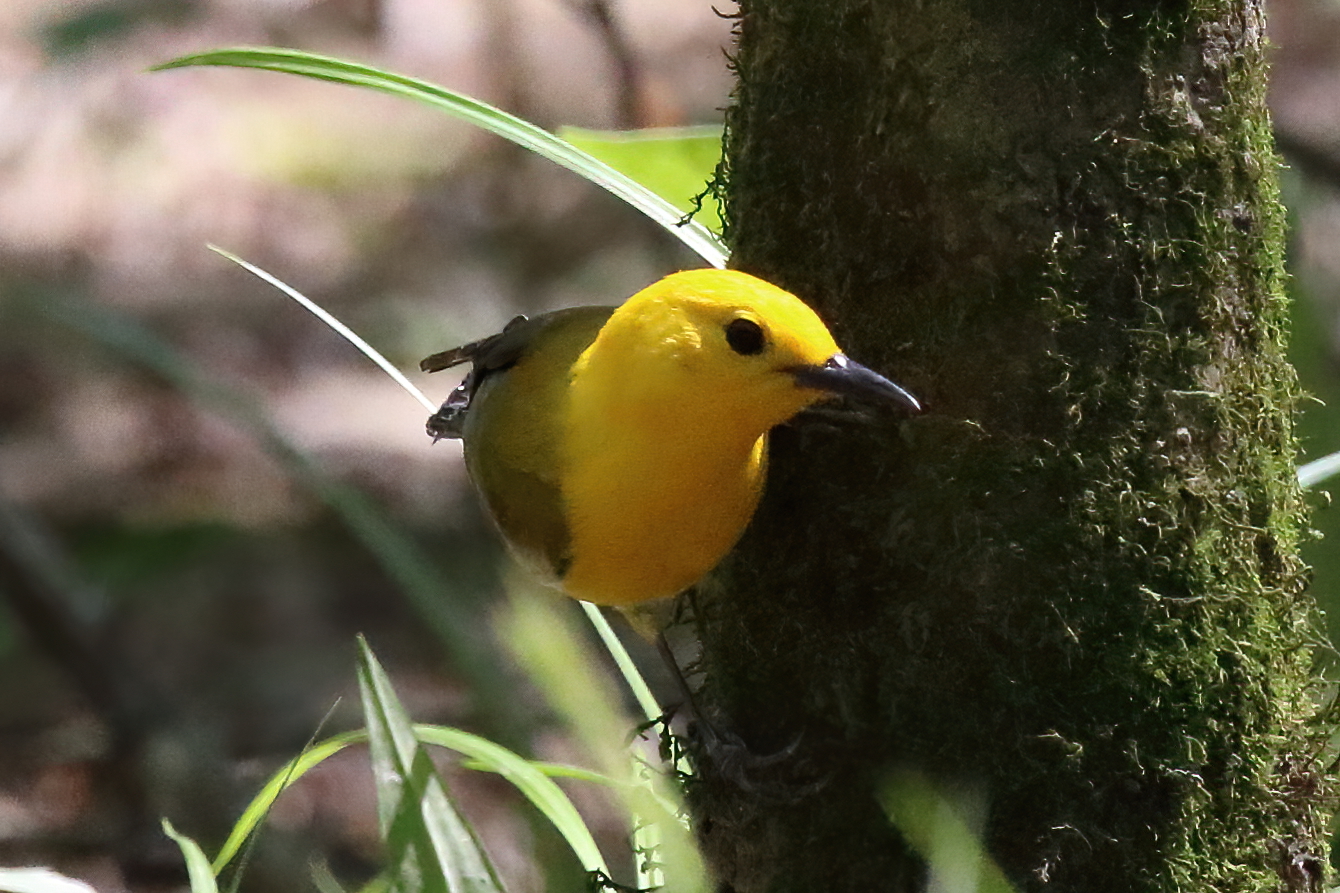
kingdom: Animalia
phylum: Chordata
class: Aves
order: Passeriformes
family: Parulidae
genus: Protonotaria
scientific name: Protonotaria citrea
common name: Prothonotary warbler
